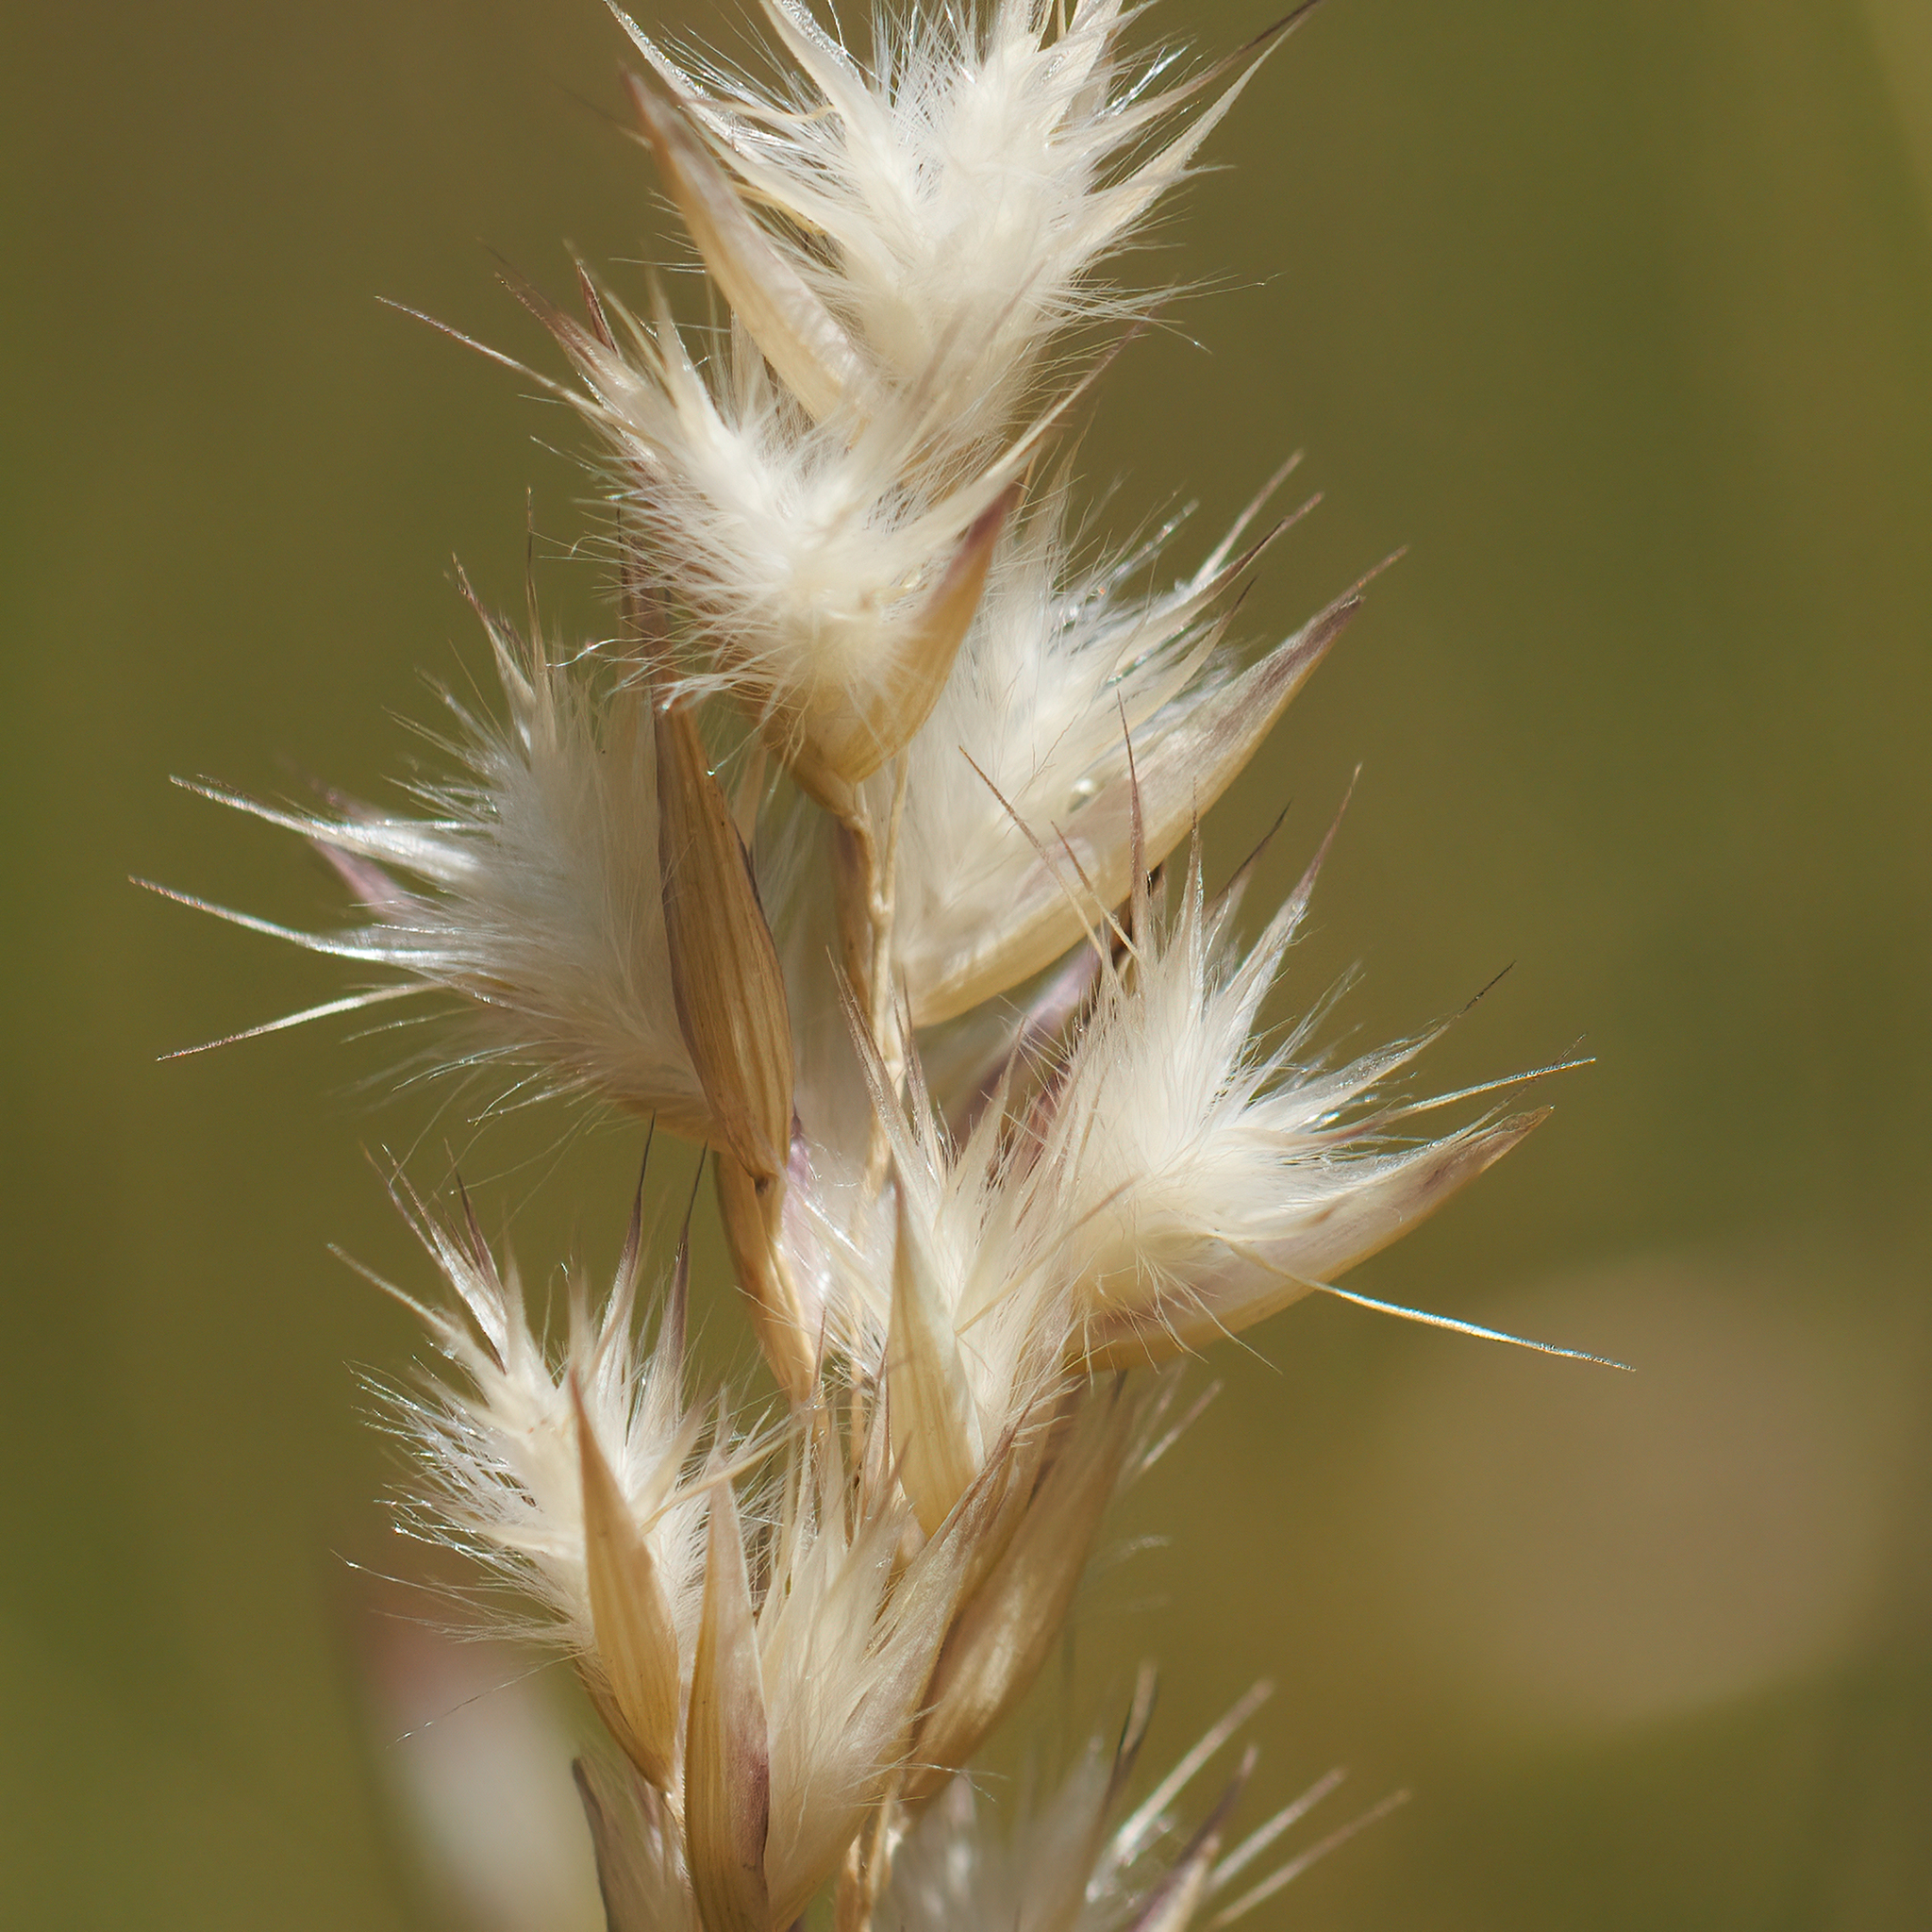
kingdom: Plantae
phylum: Tracheophyta
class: Liliopsida
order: Poales
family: Poaceae
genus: Rytidosperma
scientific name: Rytidosperma geniculatum
